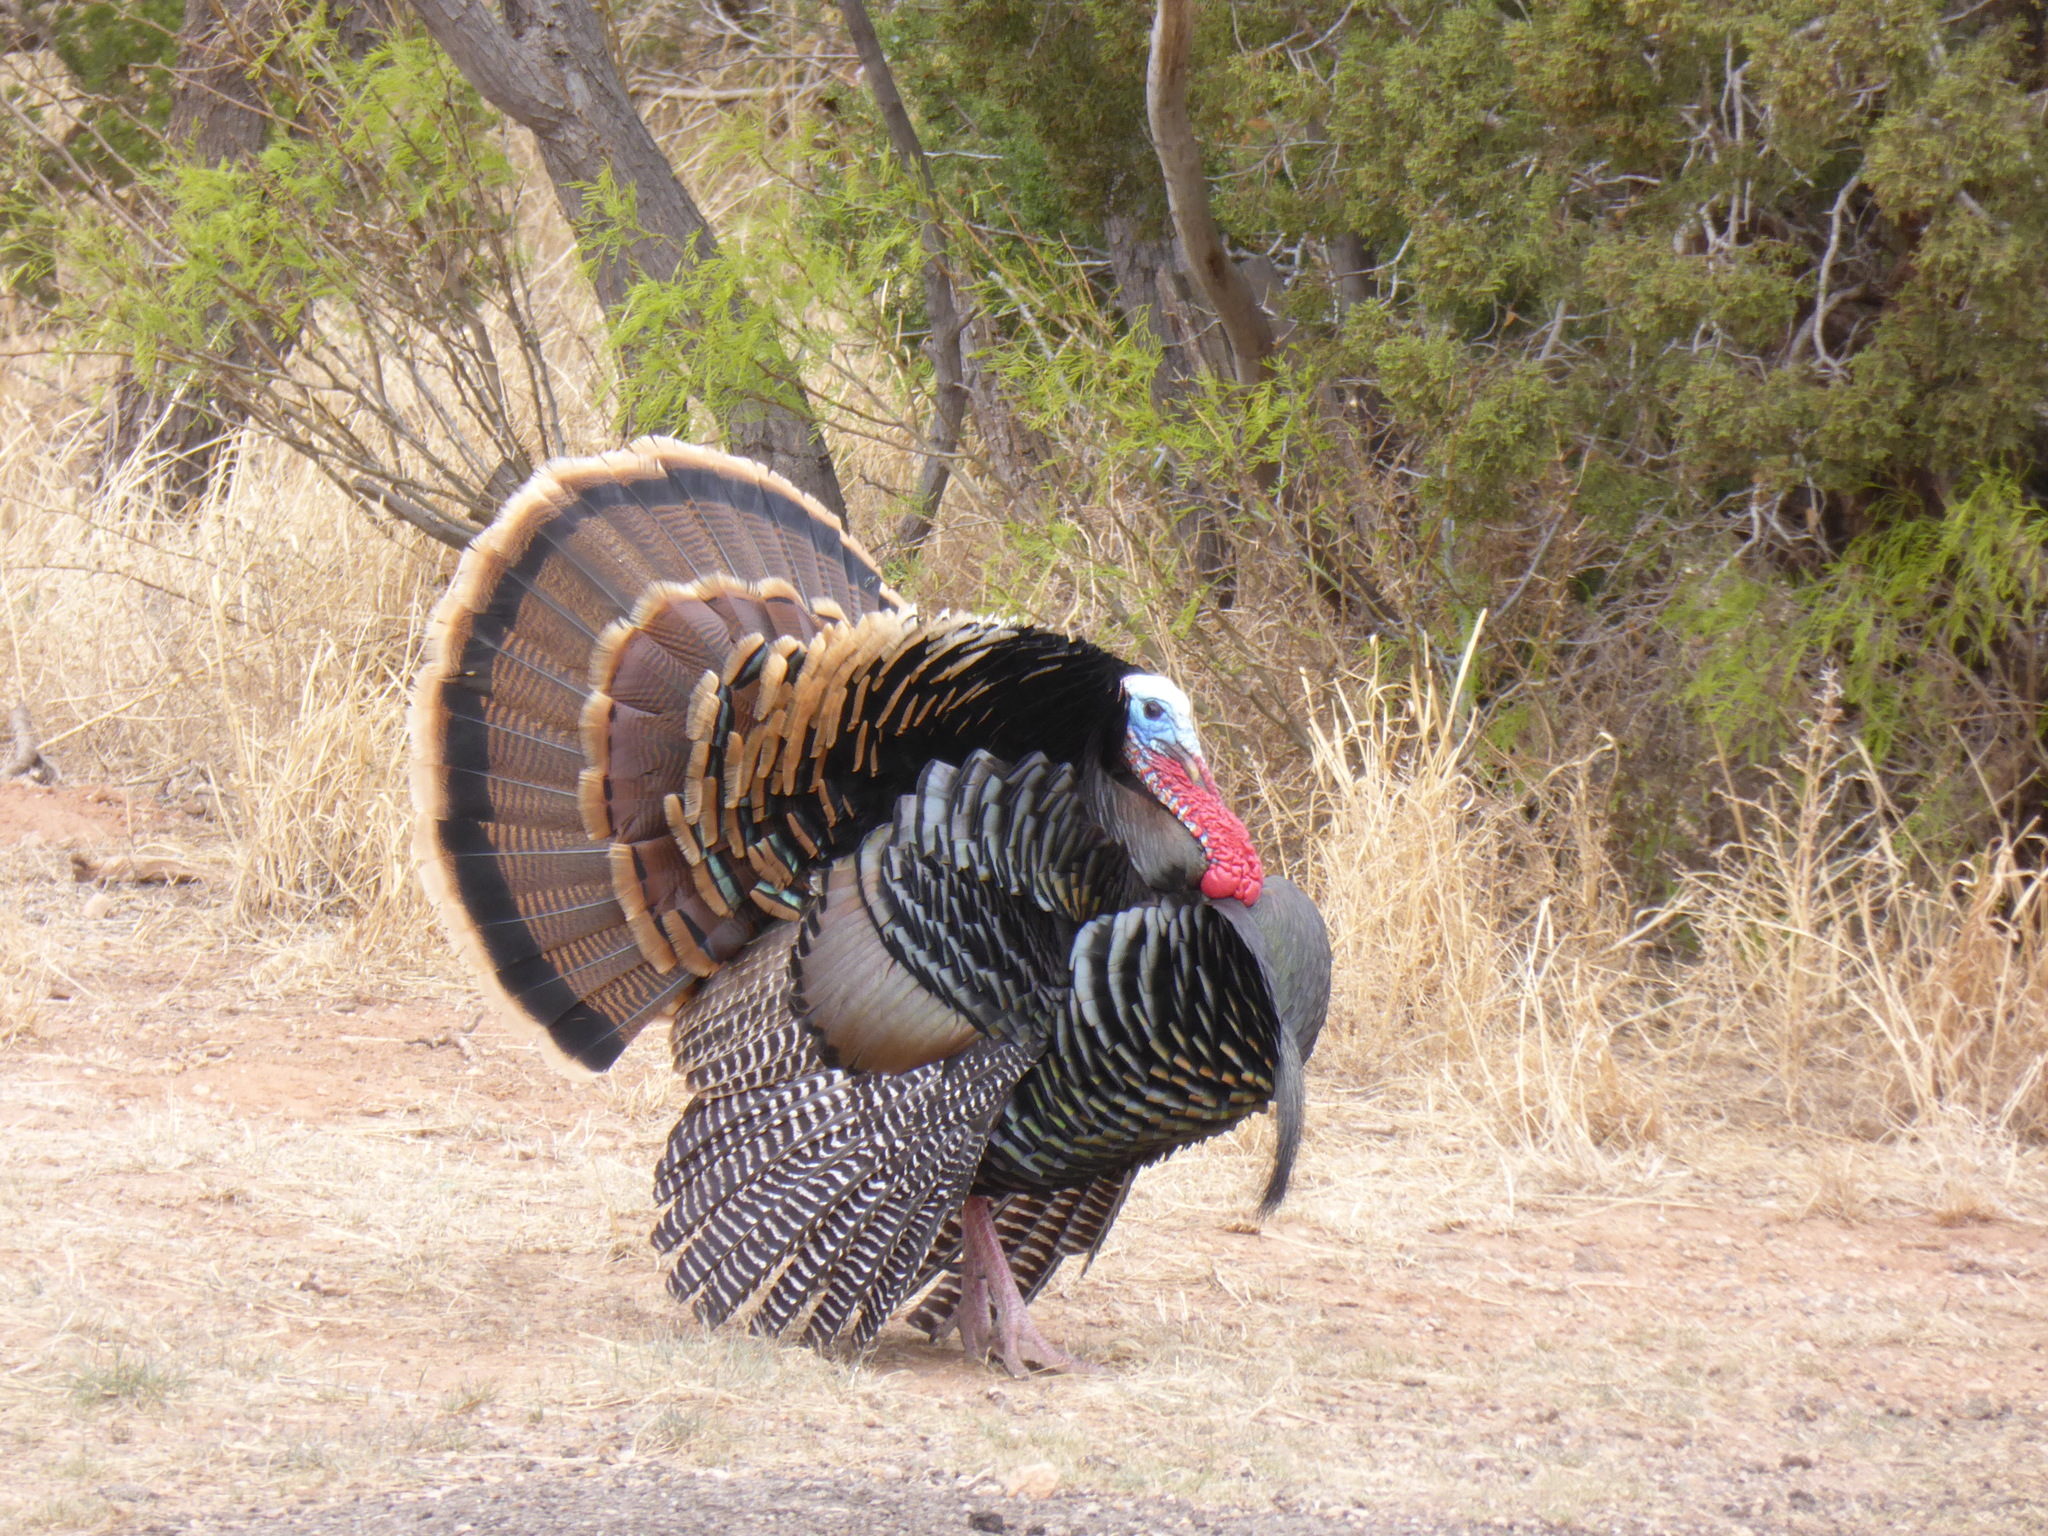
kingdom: Animalia
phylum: Chordata
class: Aves
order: Galliformes
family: Phasianidae
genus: Meleagris
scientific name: Meleagris gallopavo
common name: Wild turkey
